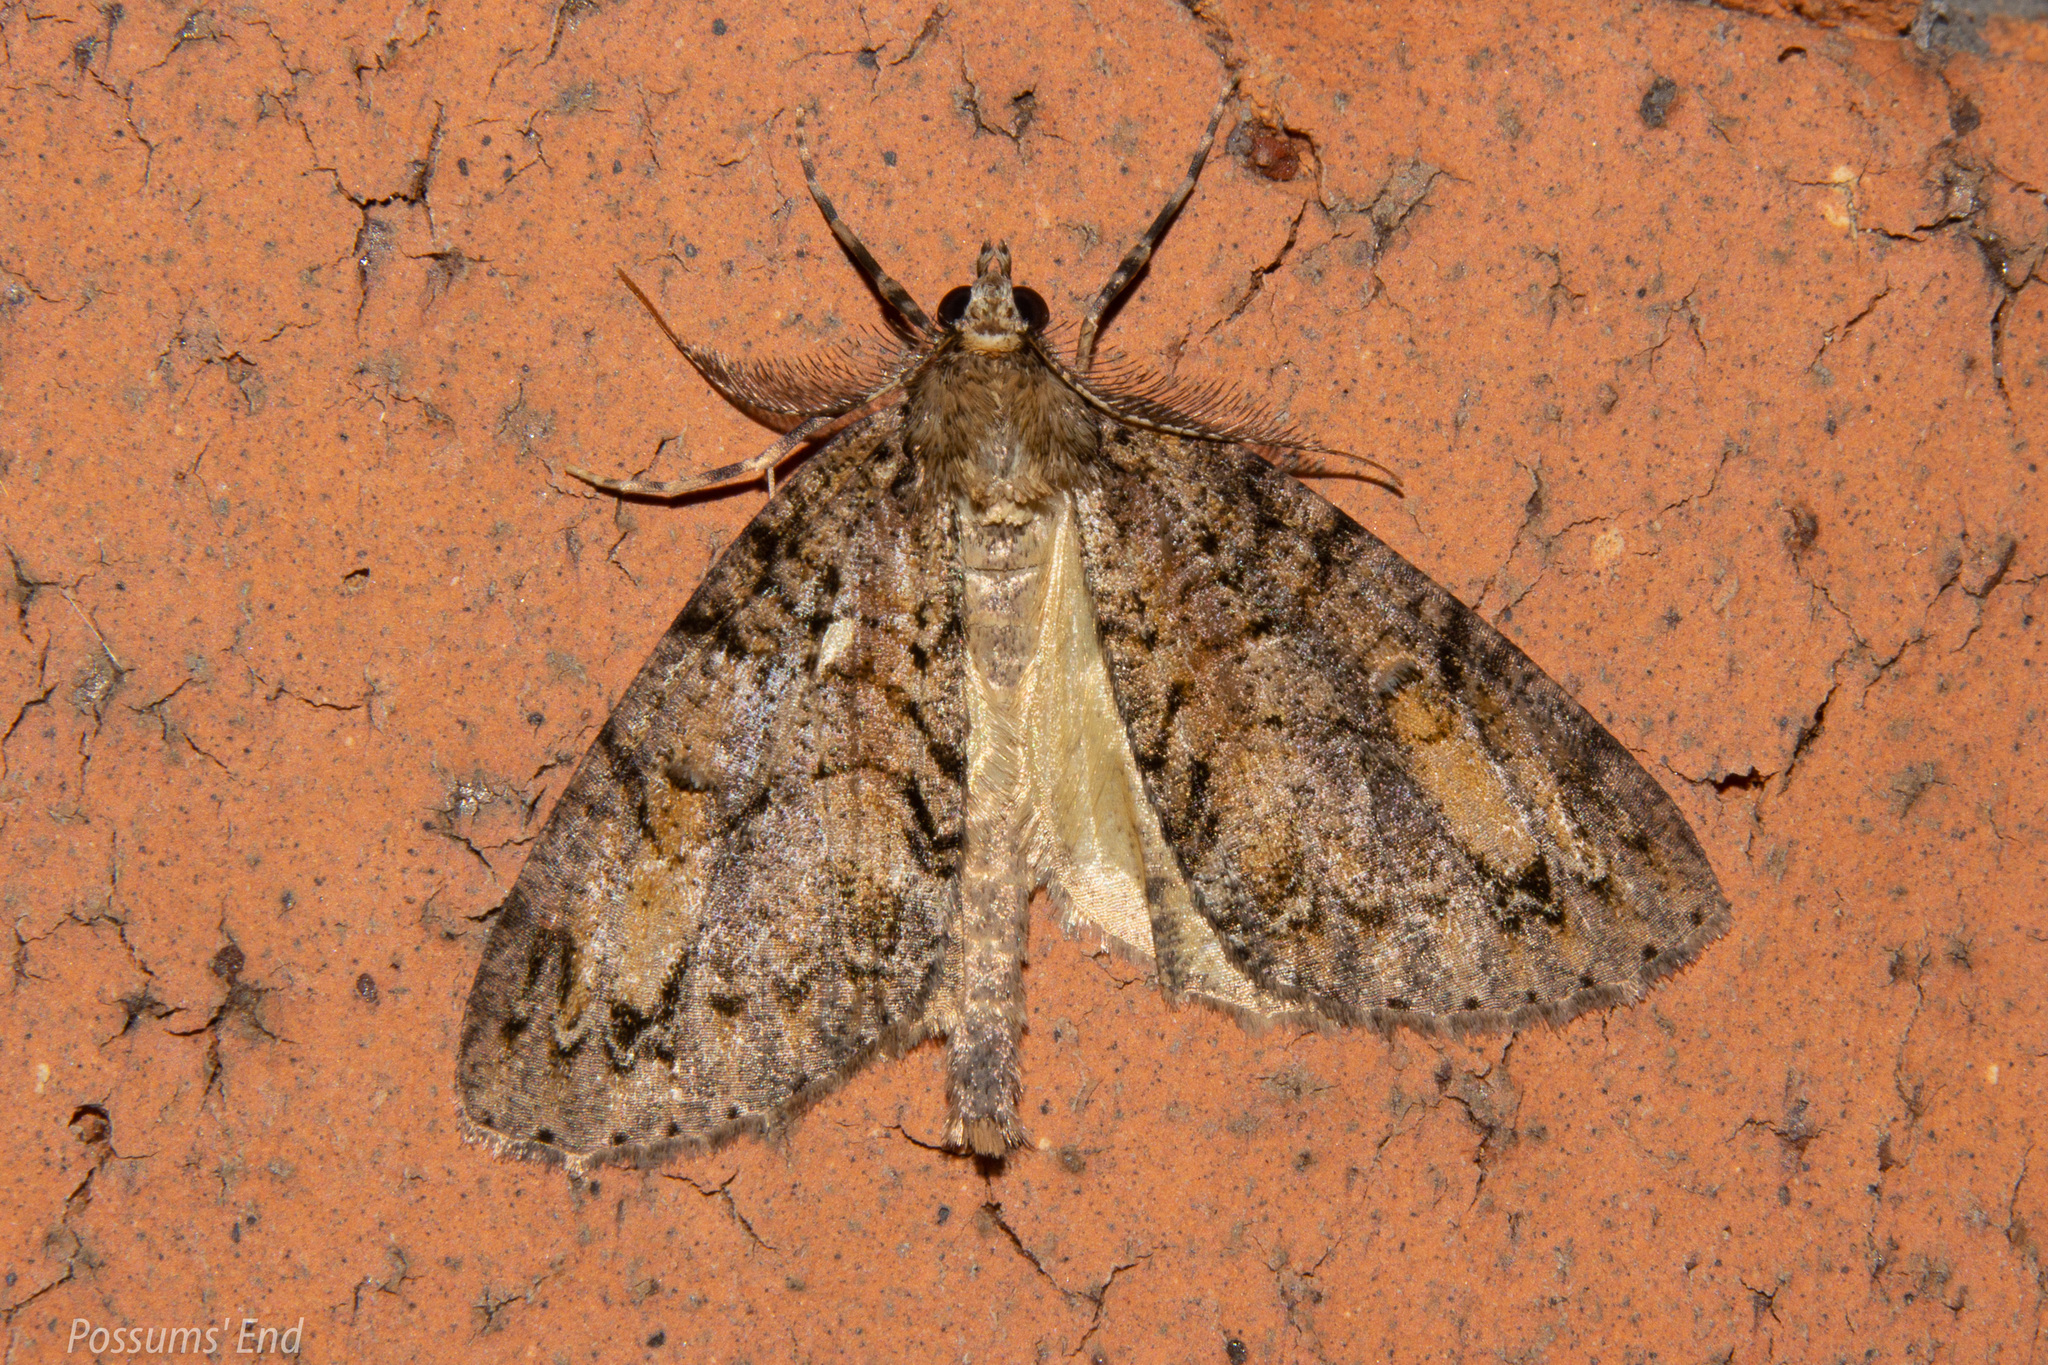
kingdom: Animalia
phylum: Arthropoda
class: Insecta
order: Lepidoptera
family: Geometridae
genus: Pseudocoremia
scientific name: Pseudocoremia suavis
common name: Common forest looper
